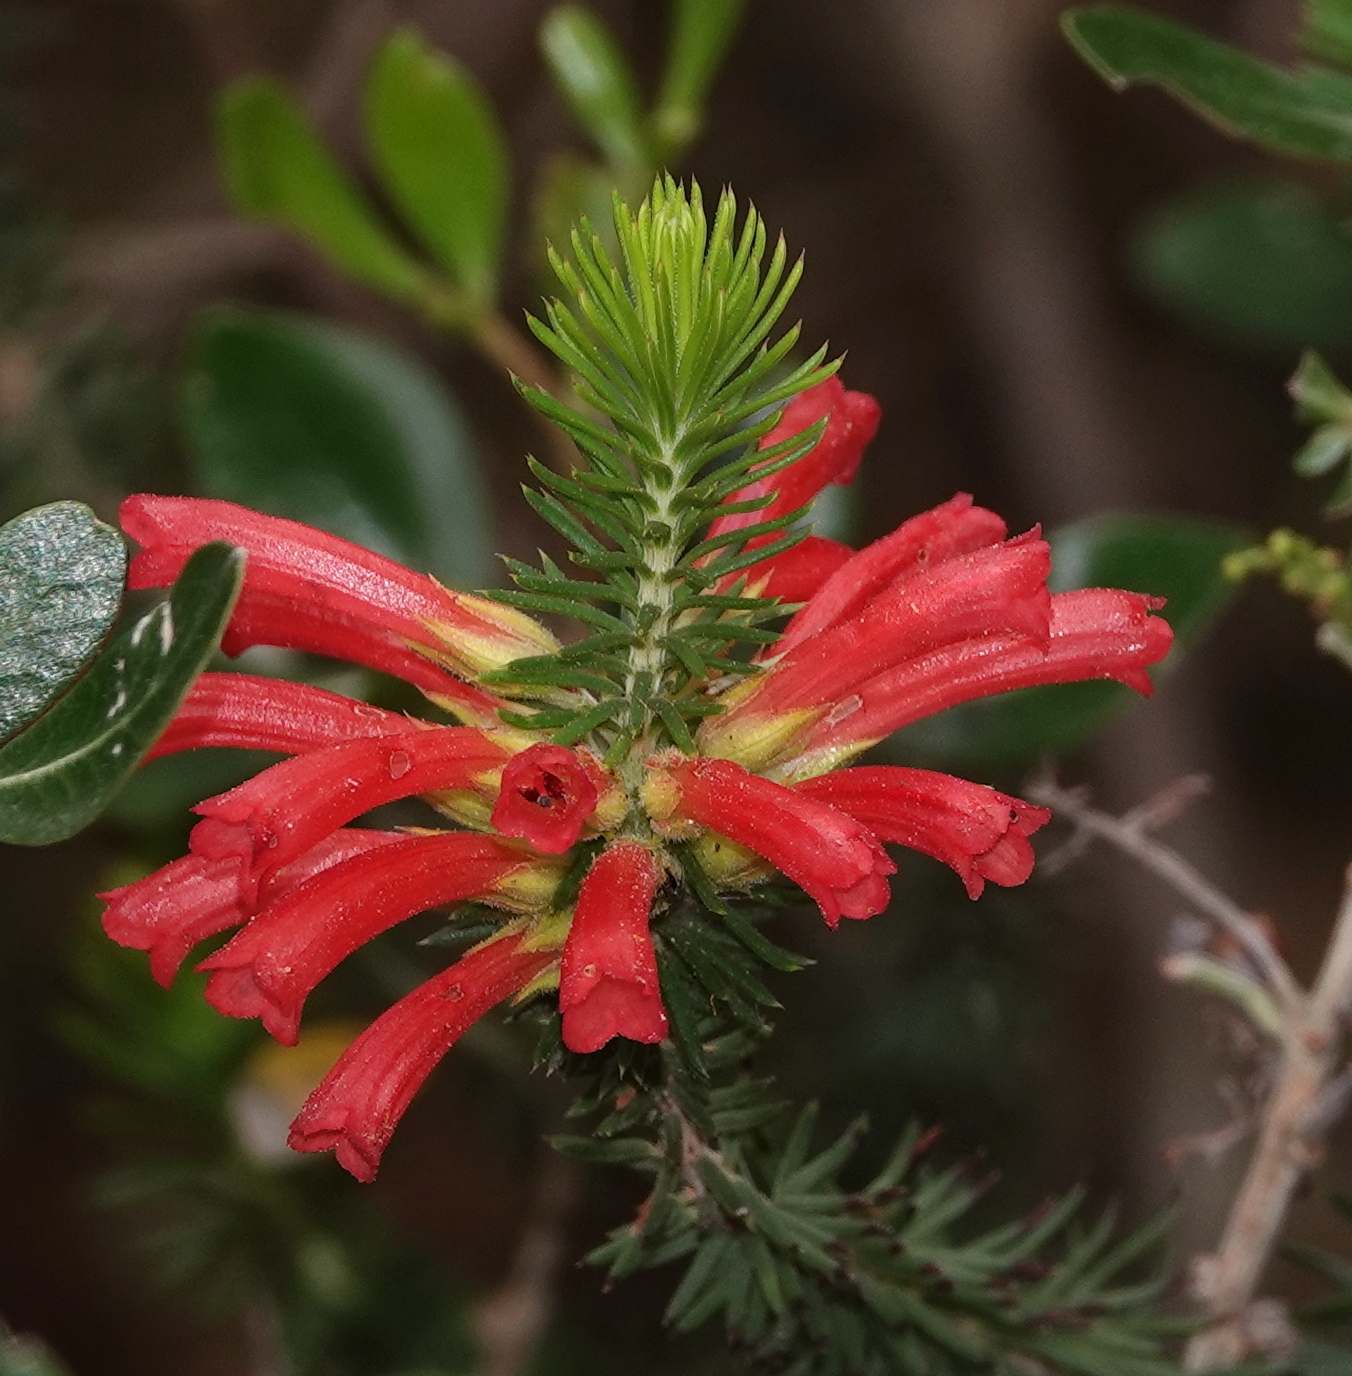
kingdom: Plantae
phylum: Tracheophyta
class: Magnoliopsida
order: Ericales
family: Ericaceae
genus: Erica
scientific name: Erica abietina
